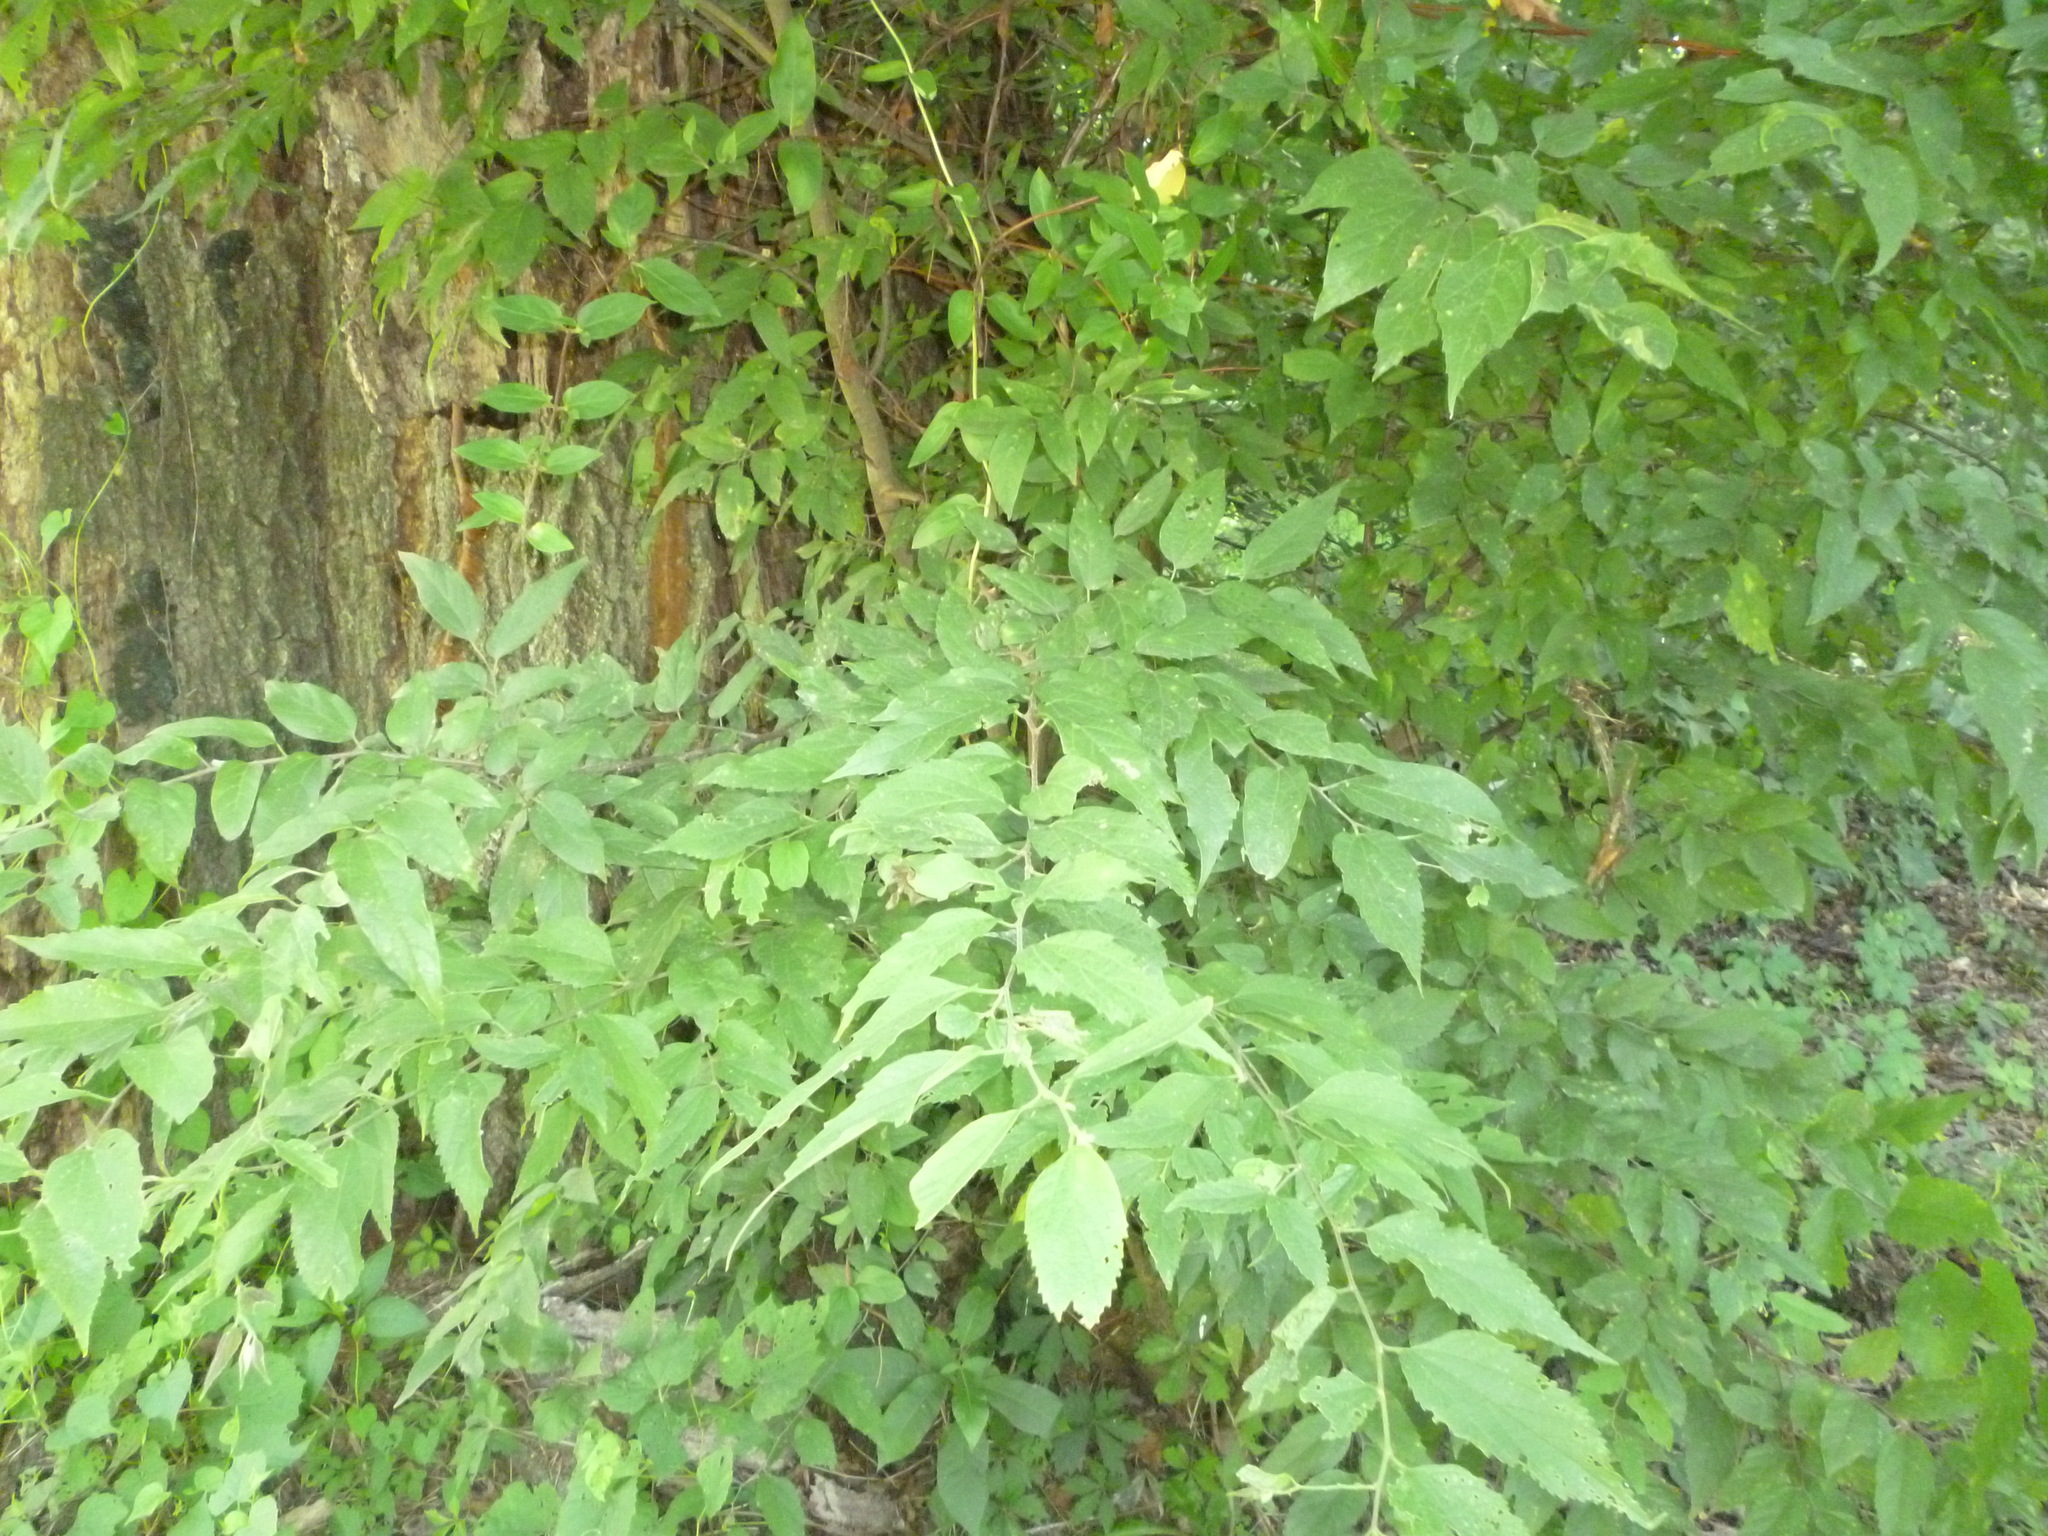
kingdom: Plantae
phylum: Tracheophyta
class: Magnoliopsida
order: Rosales
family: Cannabaceae
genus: Celtis
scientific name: Celtis laevigata
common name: Sugarberry
